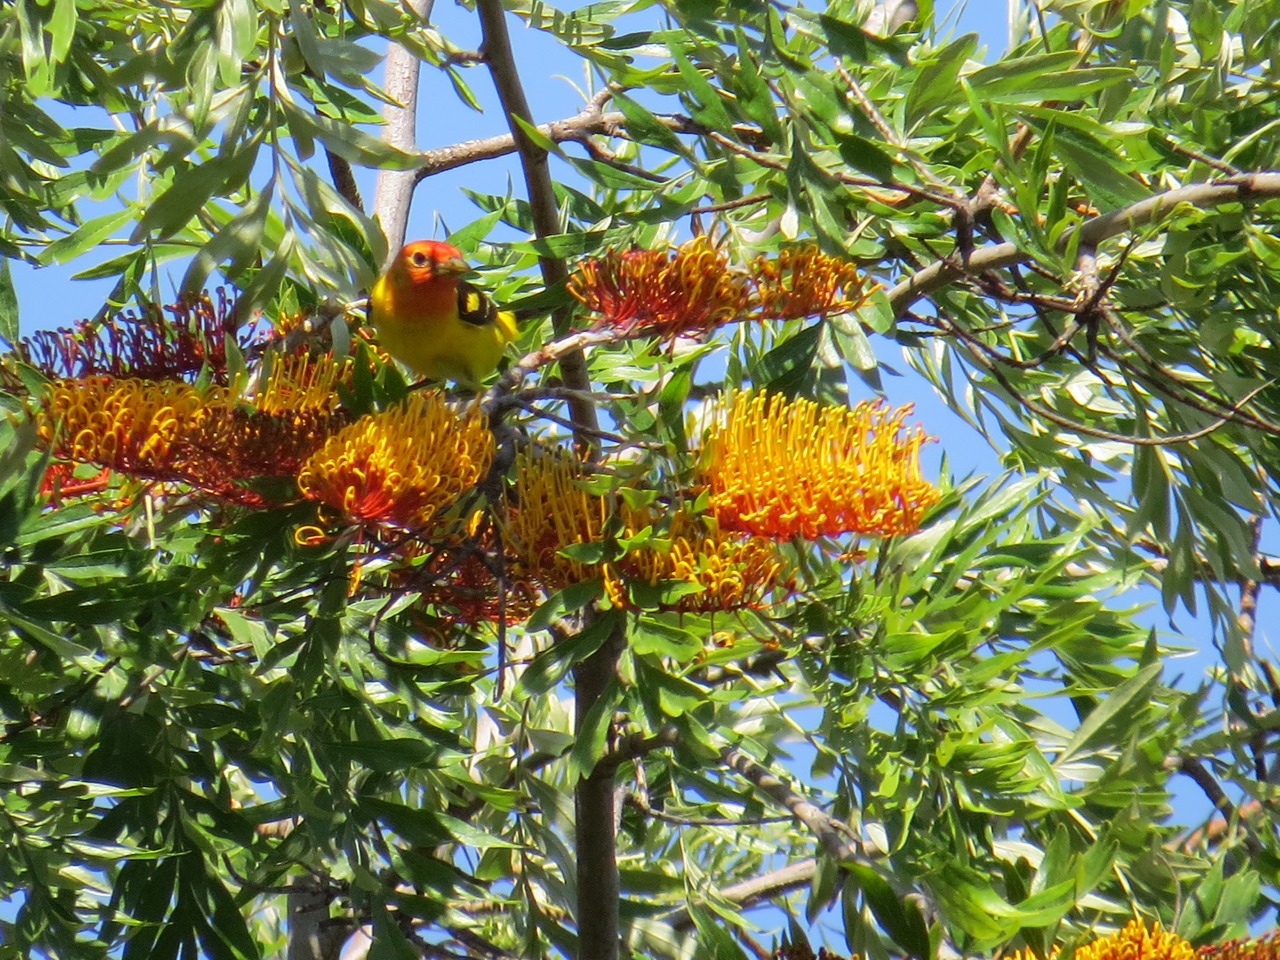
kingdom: Animalia
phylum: Chordata
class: Aves
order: Passeriformes
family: Cardinalidae
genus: Piranga
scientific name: Piranga ludoviciana
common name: Western tanager
